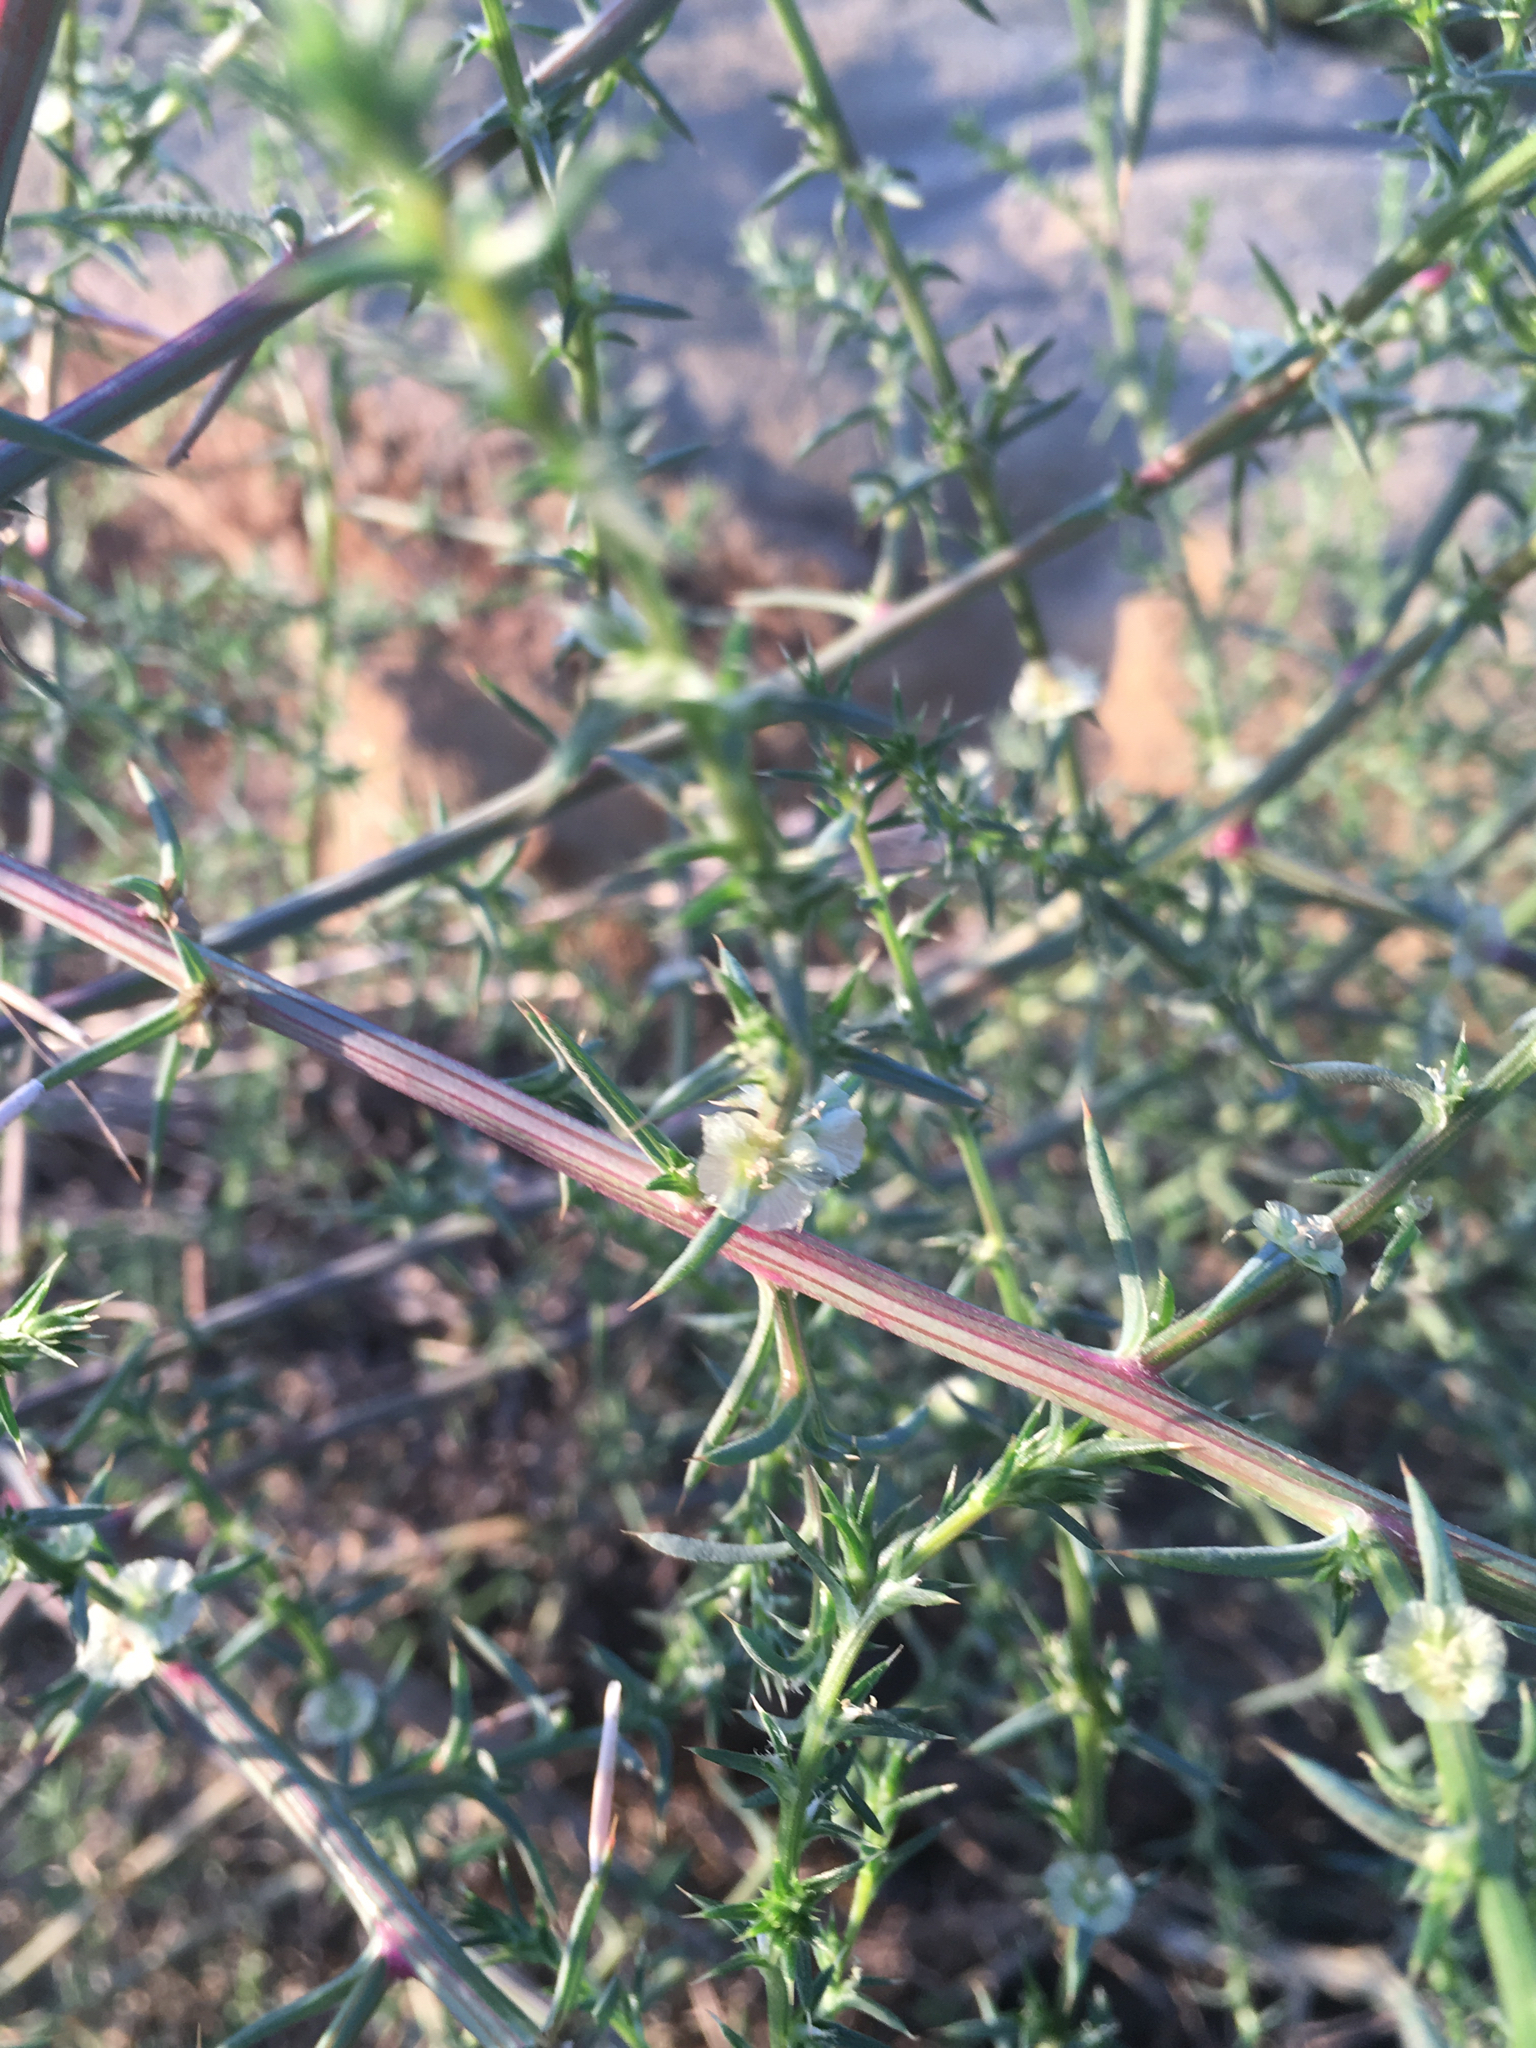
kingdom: Plantae
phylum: Tracheophyta
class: Magnoliopsida
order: Caryophyllales
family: Amaranthaceae
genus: Salsola
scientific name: Salsola australis
